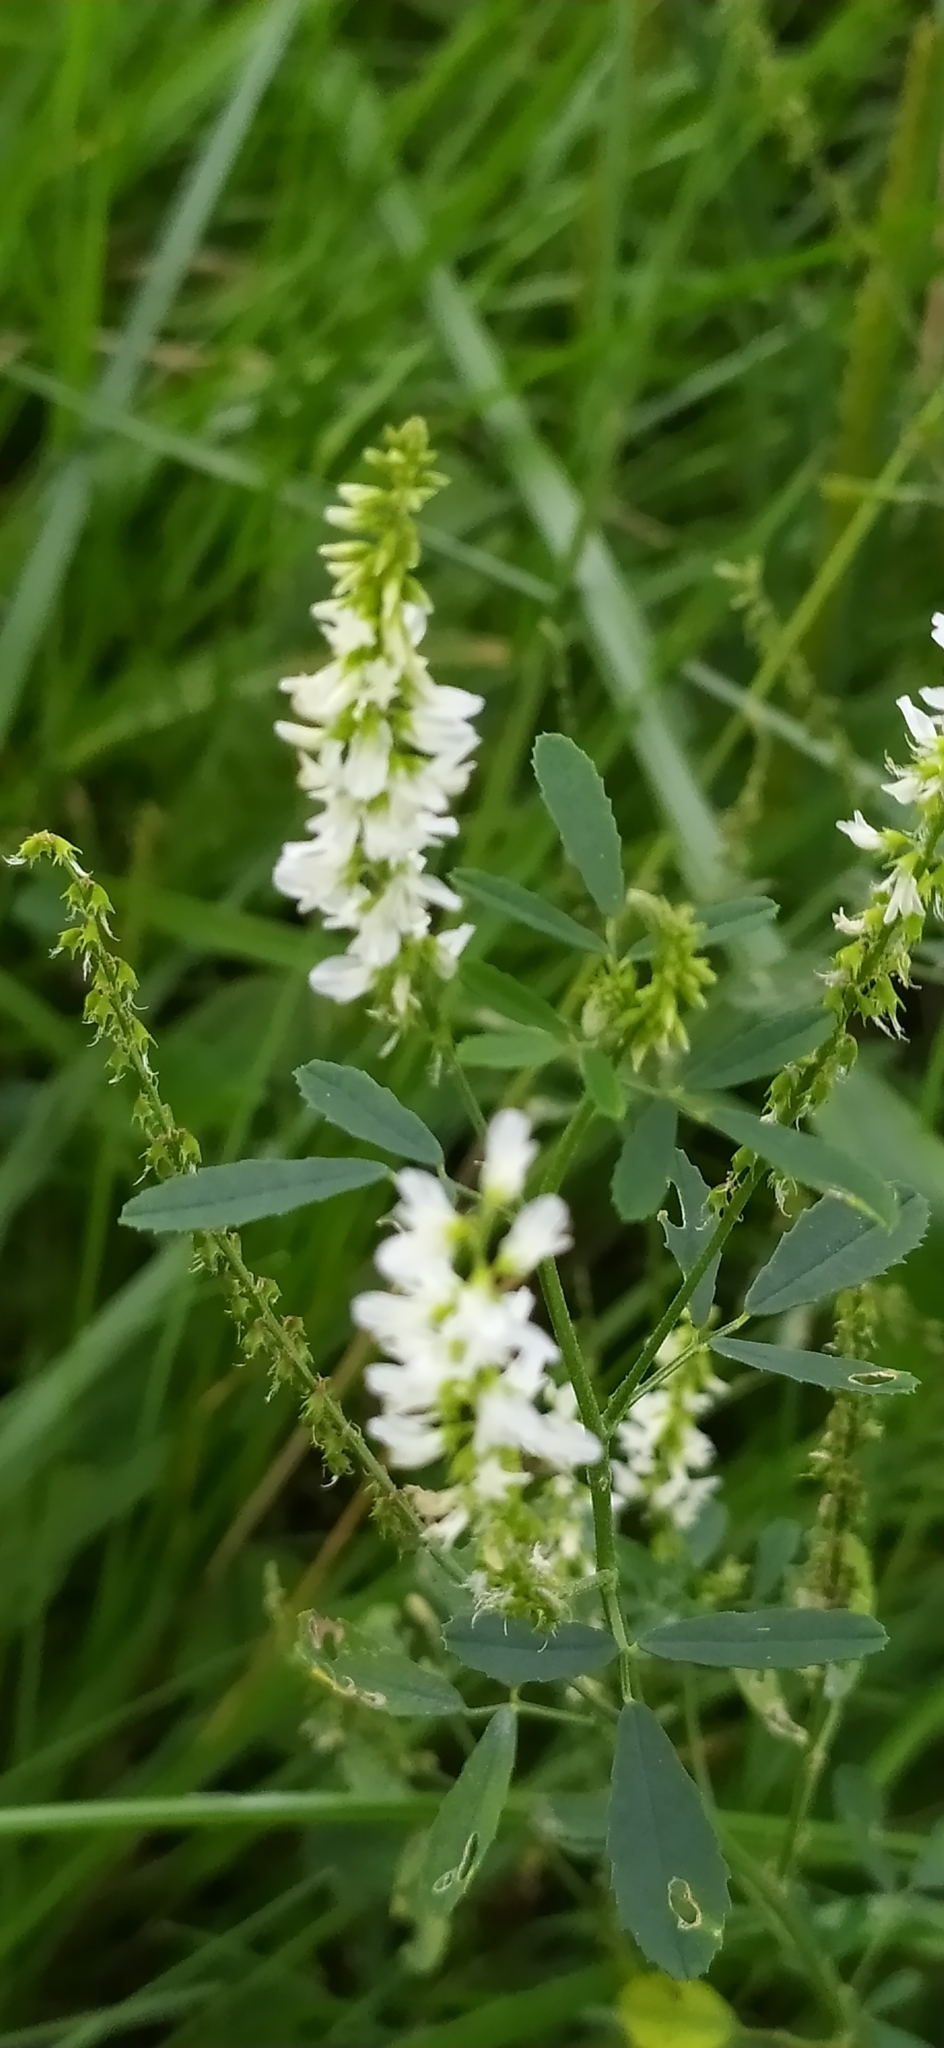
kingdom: Plantae
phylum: Tracheophyta
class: Magnoliopsida
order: Fabales
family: Fabaceae
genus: Melilotus
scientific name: Melilotus albus
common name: White melilot
